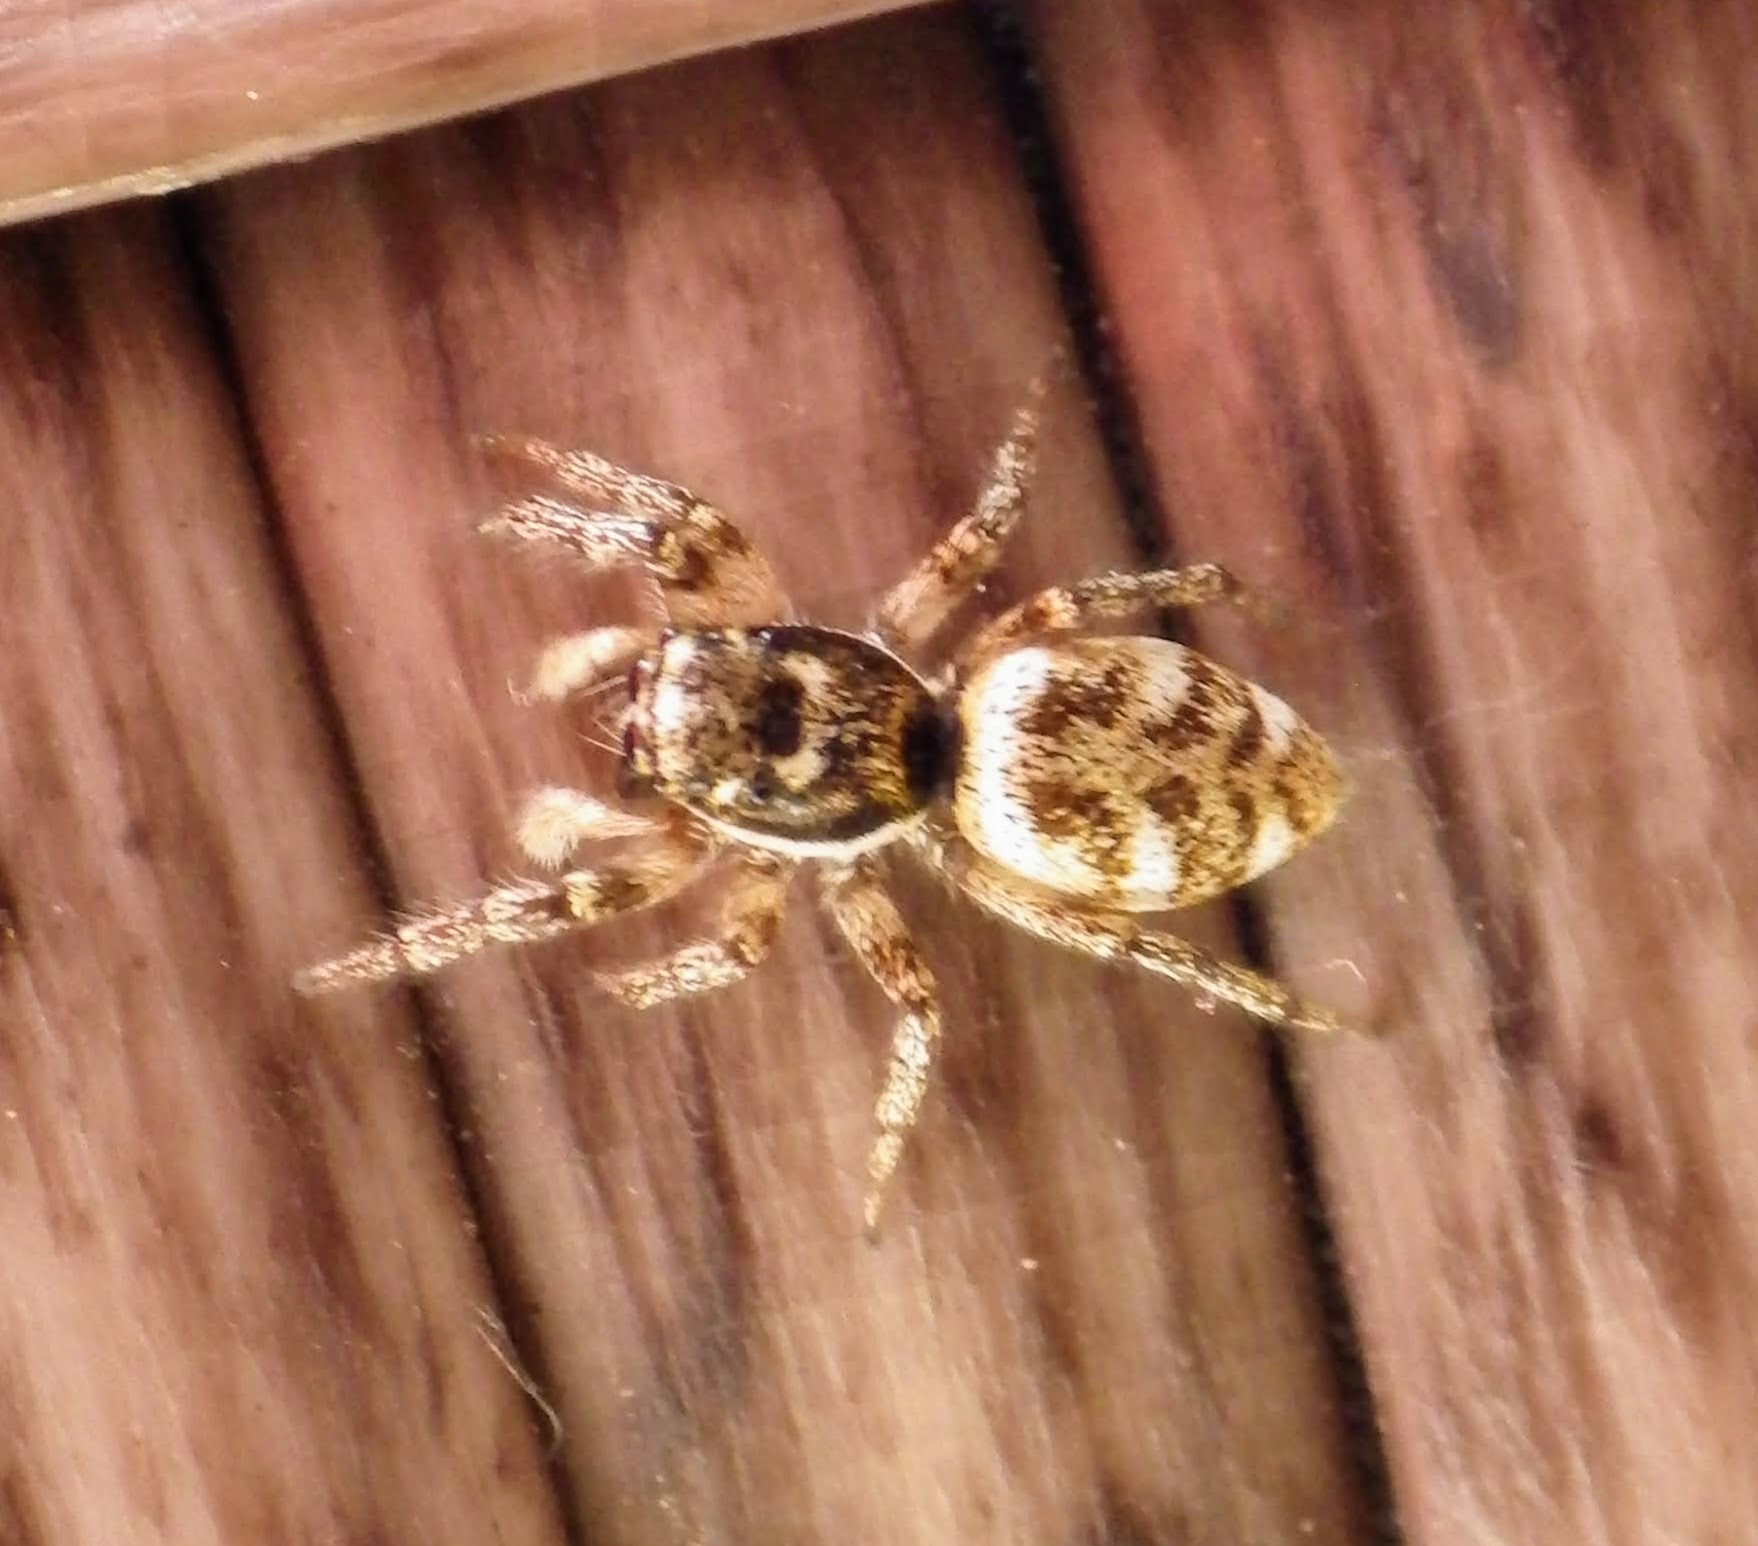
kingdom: Animalia
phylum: Arthropoda
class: Arachnida
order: Araneae
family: Salticidae
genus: Salticus
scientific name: Salticus scenicus
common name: Zebra jumper
